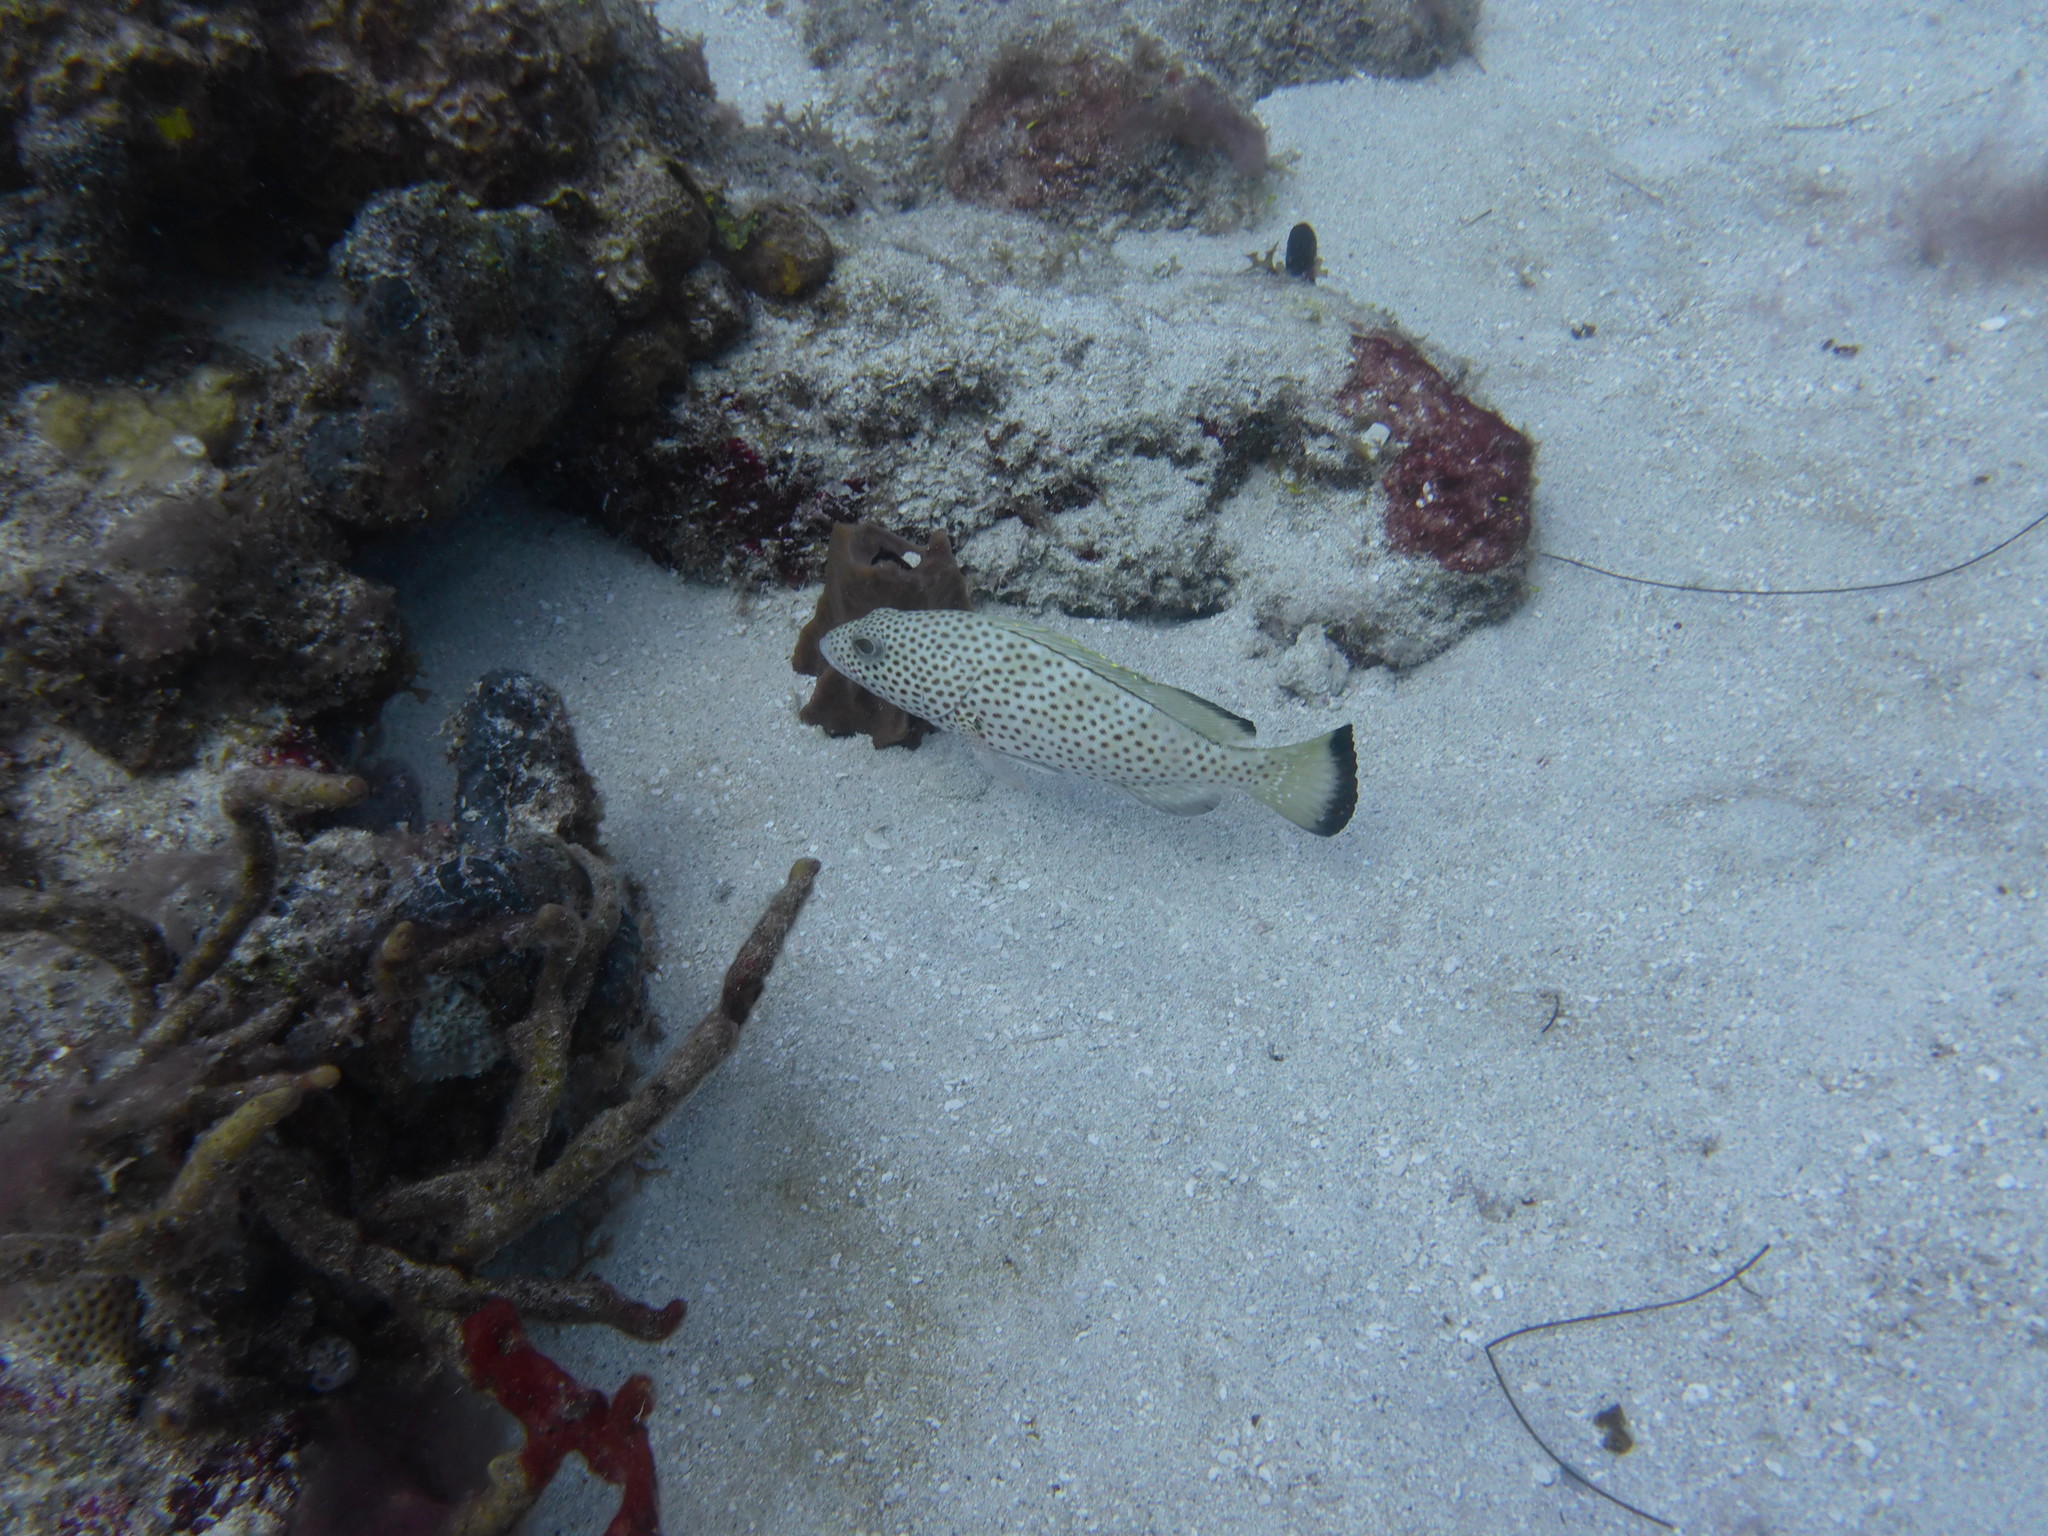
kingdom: Animalia
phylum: Chordata
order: Perciformes
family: Serranidae
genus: Epinephelus
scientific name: Epinephelus guttatus
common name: Red hind
